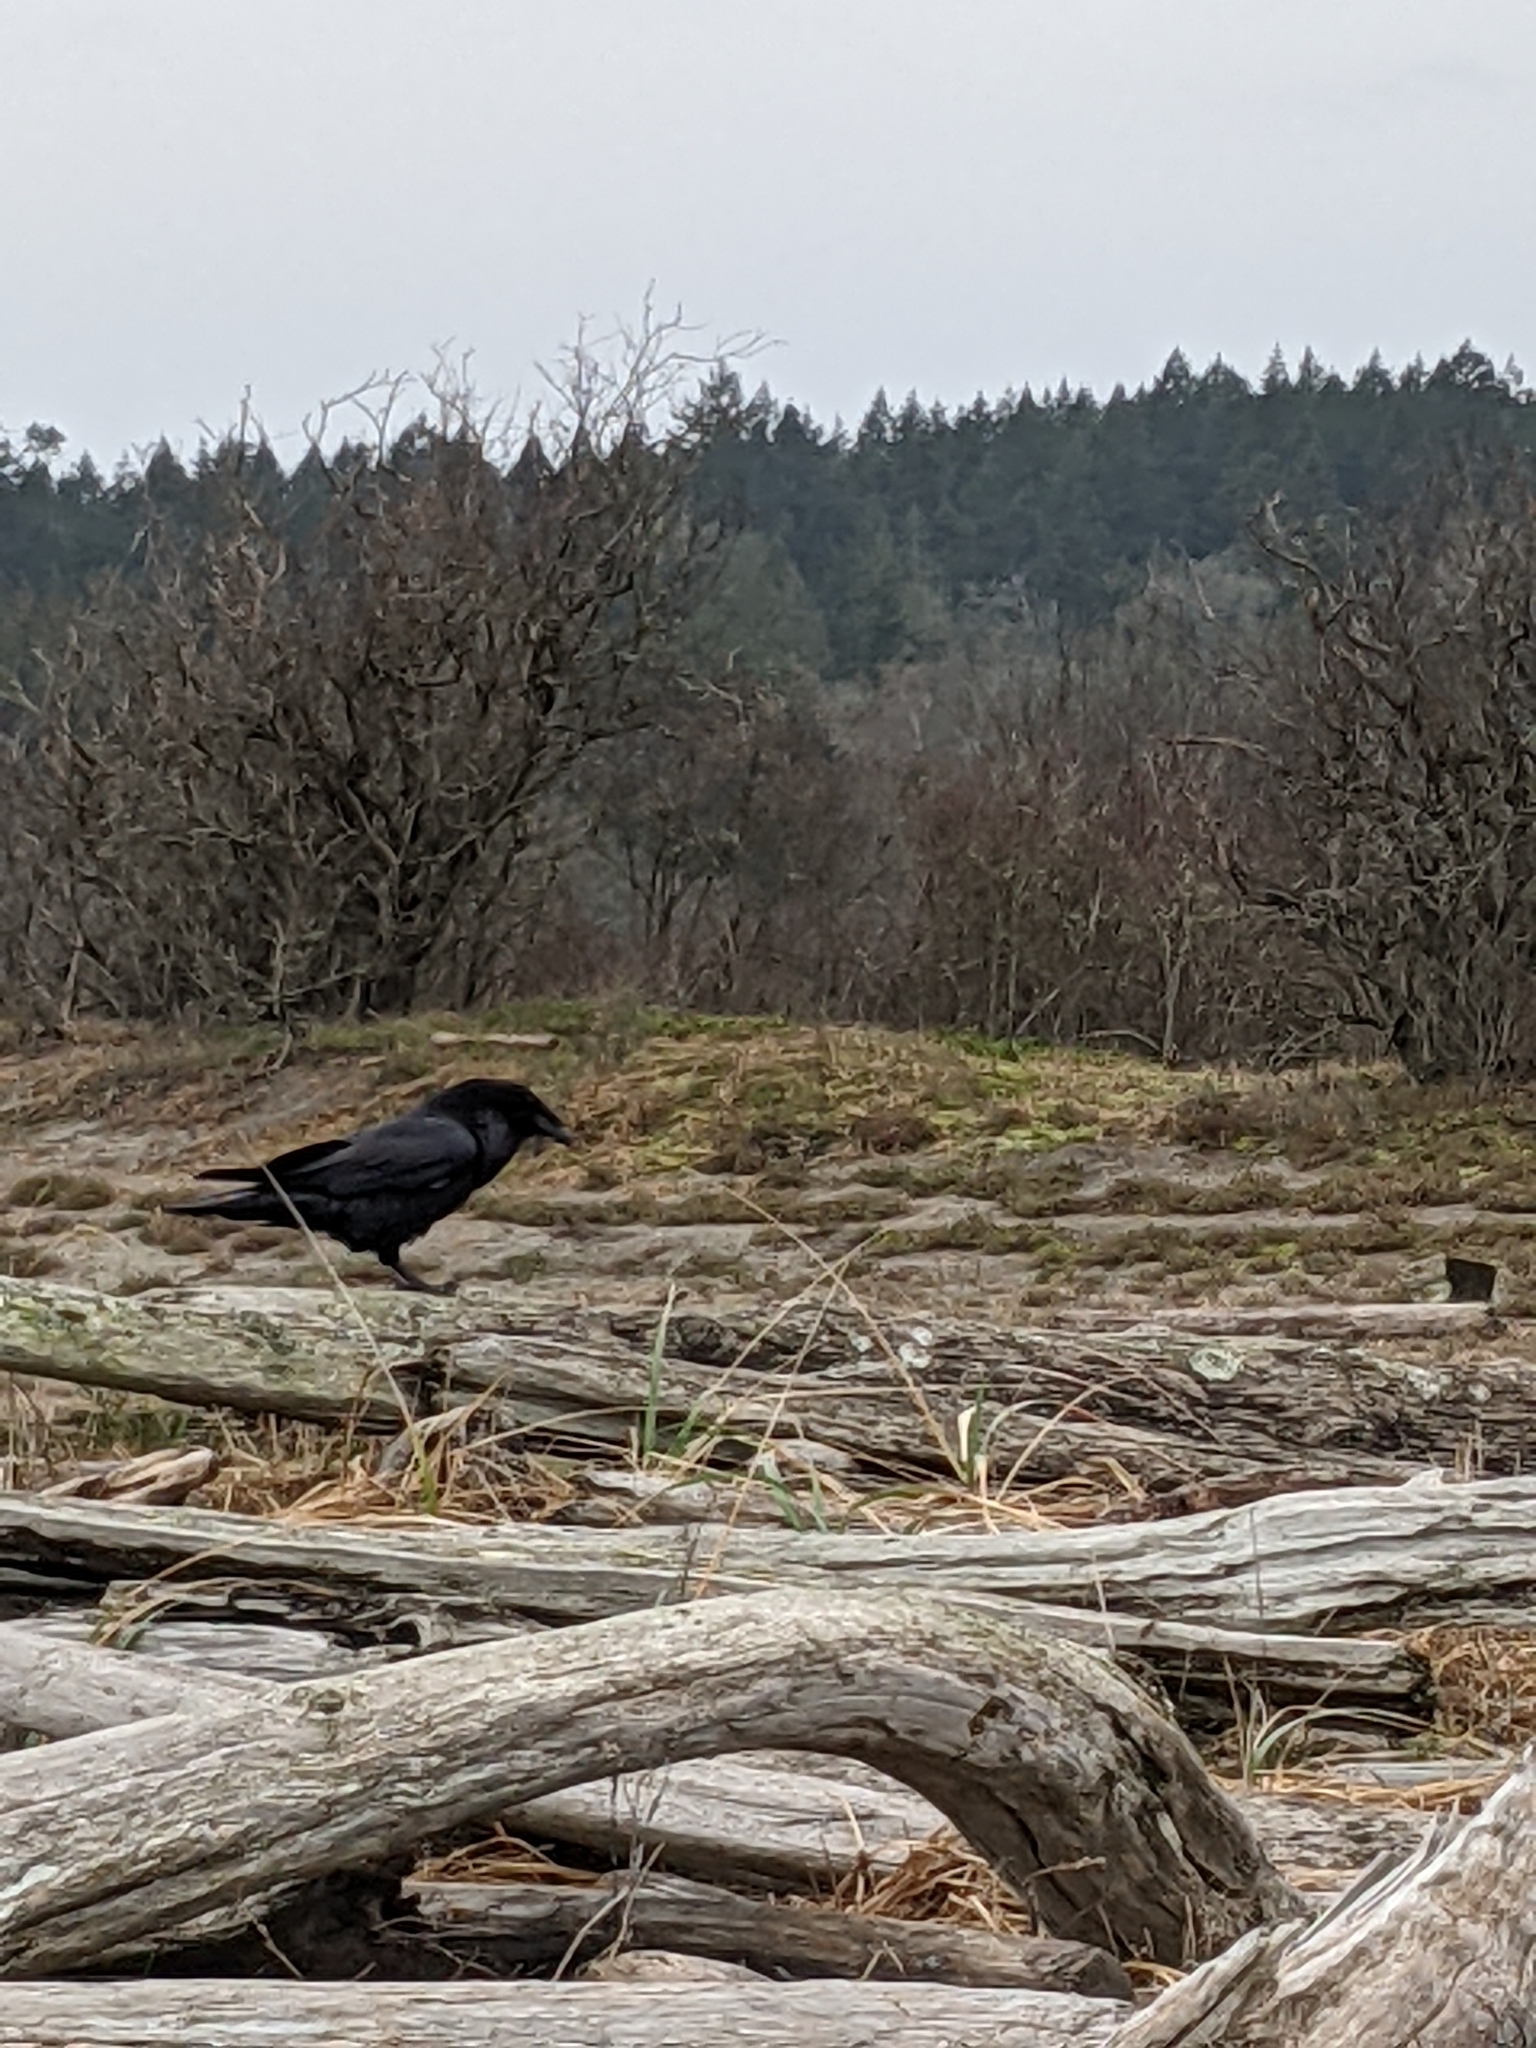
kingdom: Animalia
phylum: Chordata
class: Aves
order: Passeriformes
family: Corvidae
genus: Corvus
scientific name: Corvus corax
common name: Common raven
